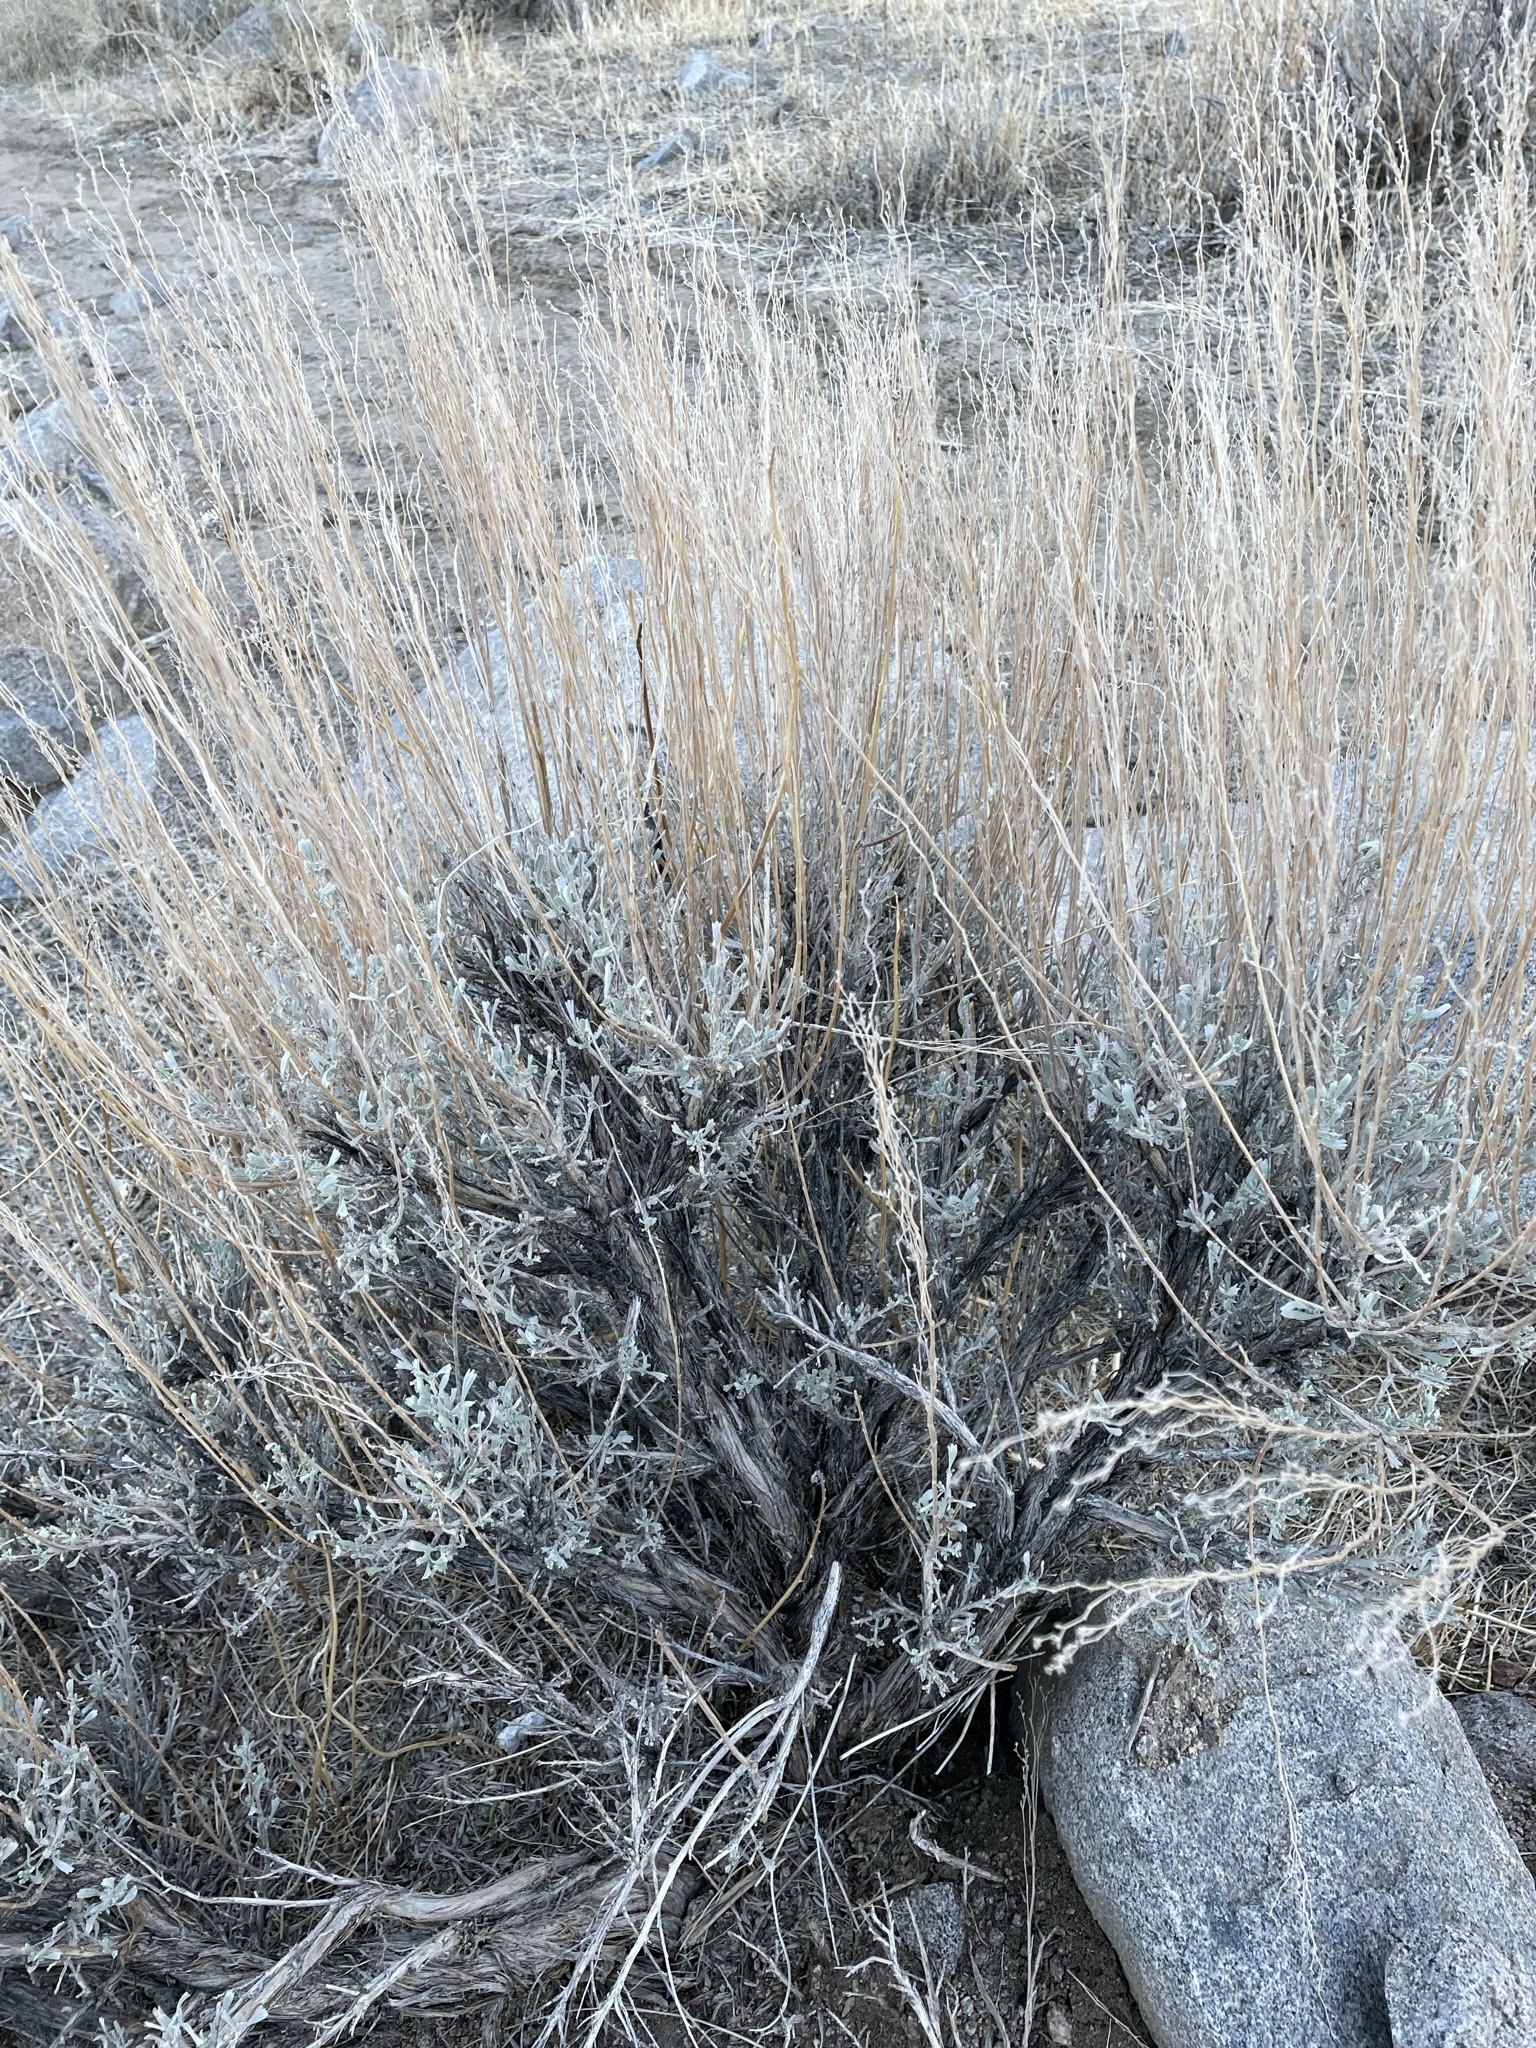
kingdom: Plantae
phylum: Tracheophyta
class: Magnoliopsida
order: Asterales
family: Asteraceae
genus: Artemisia
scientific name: Artemisia tridentata
